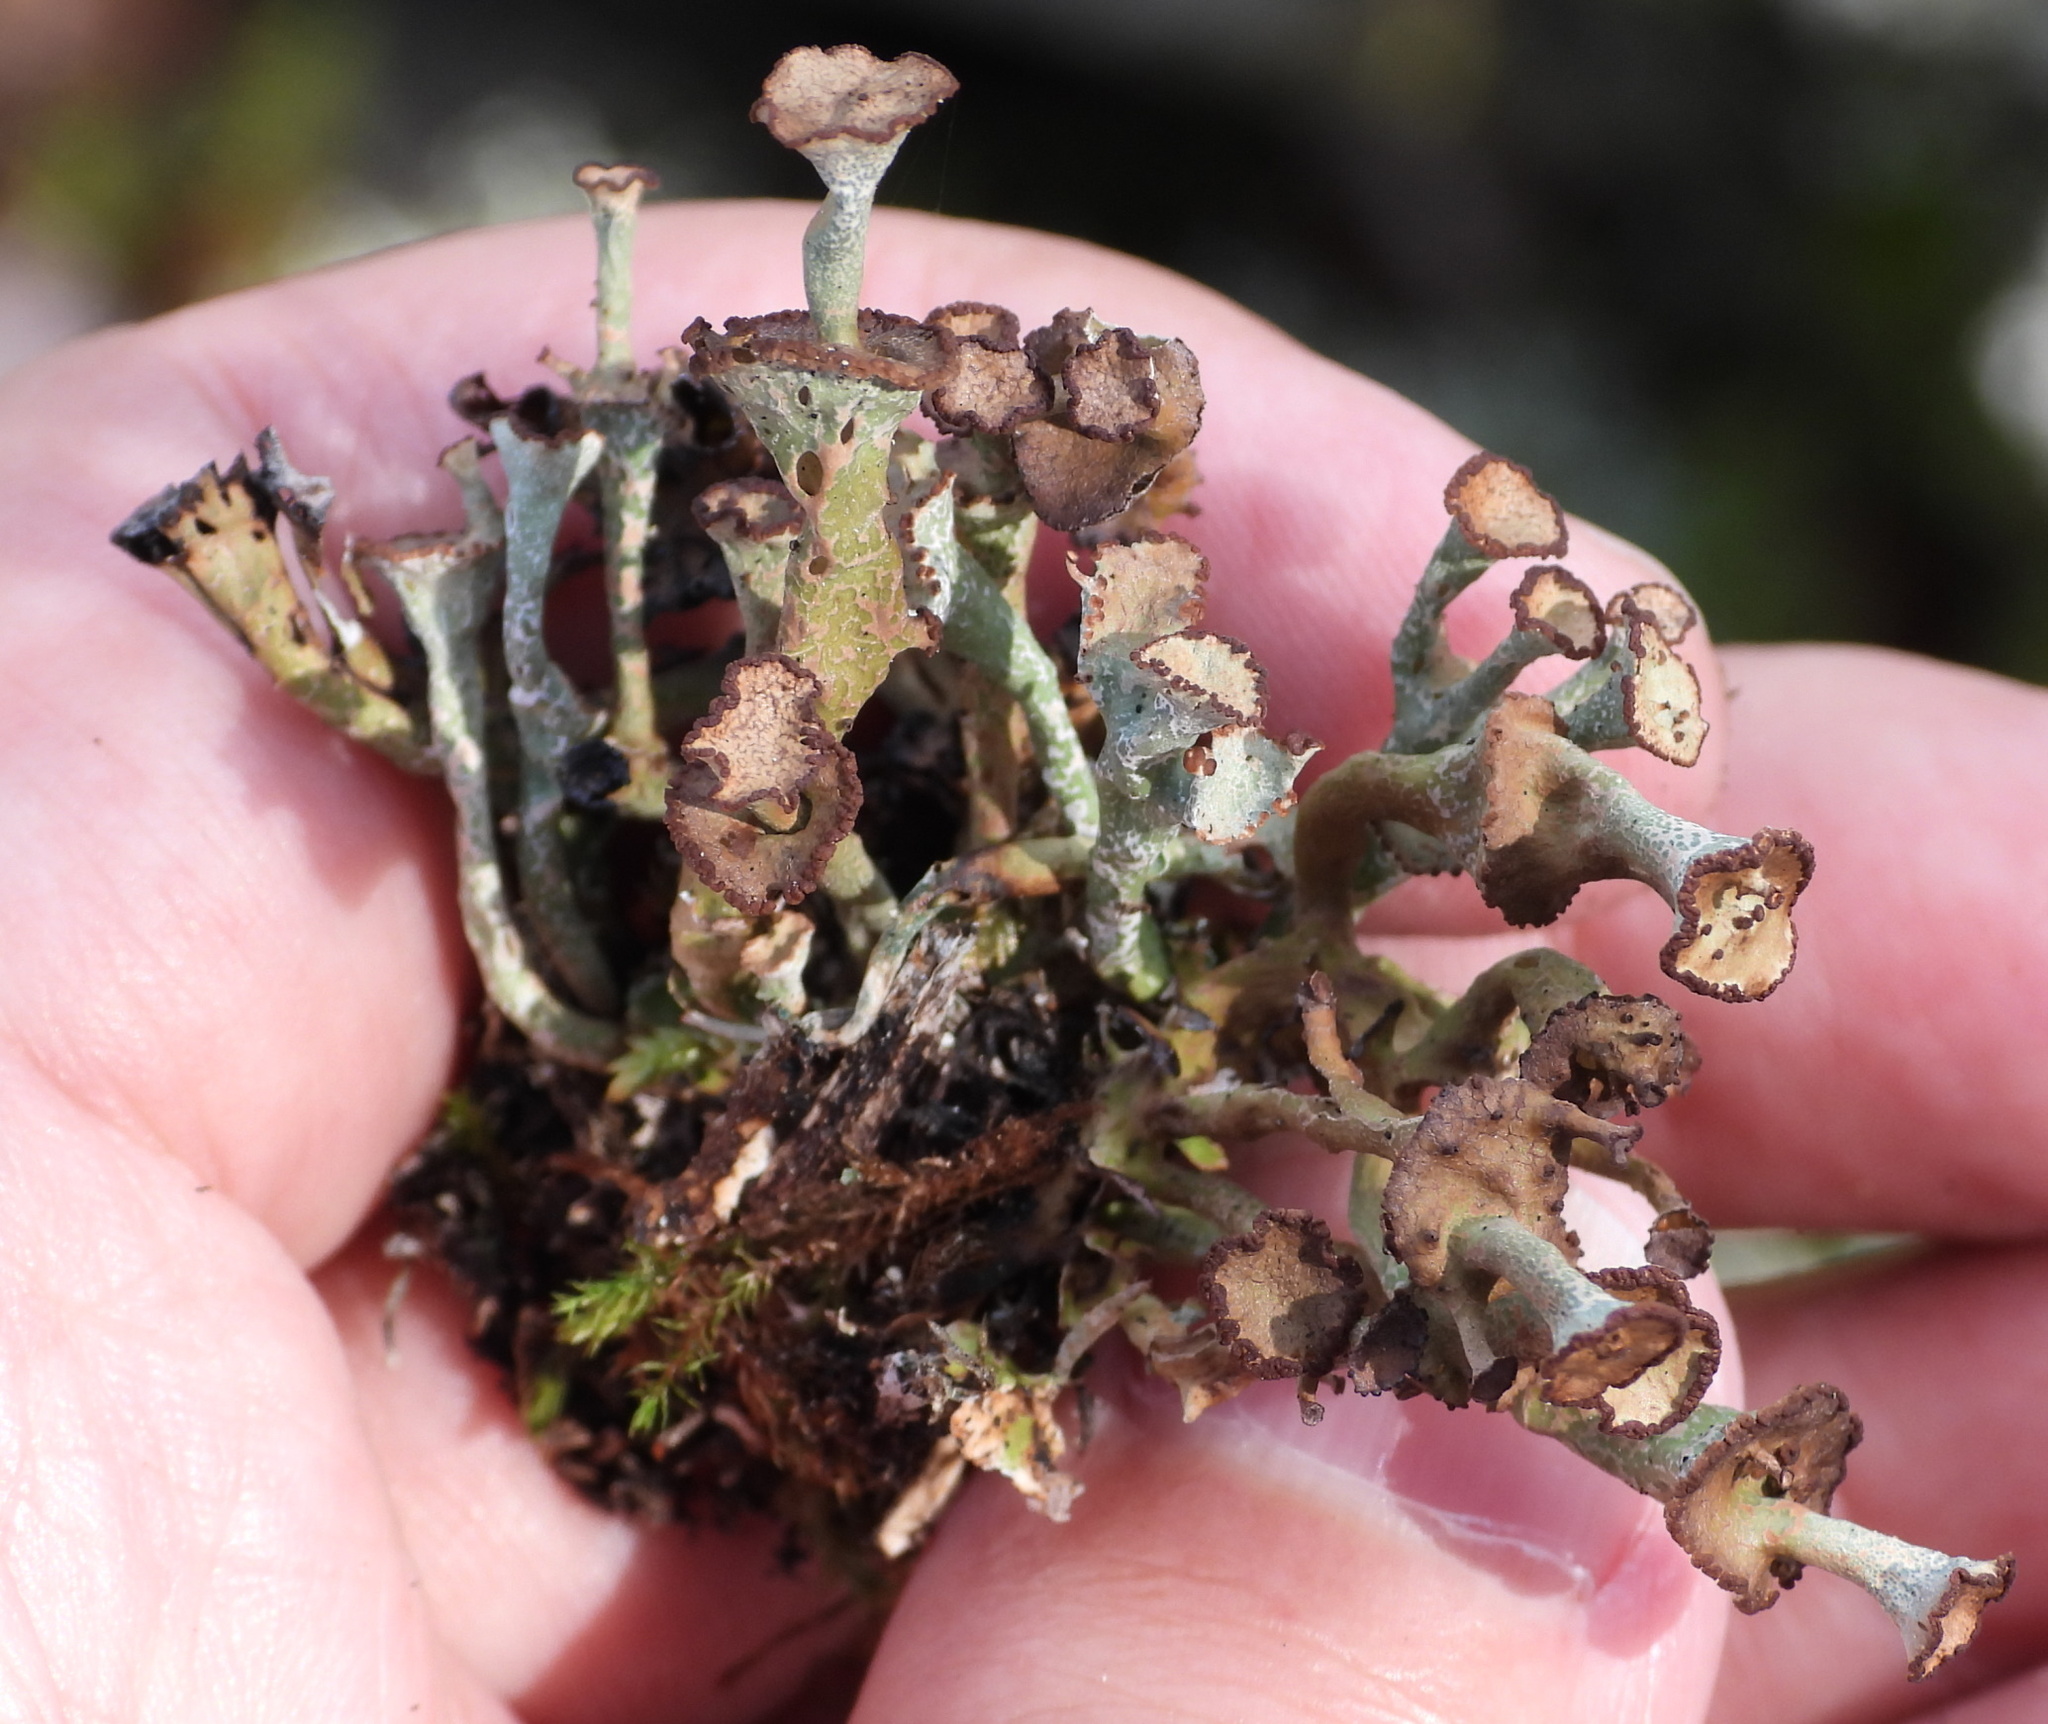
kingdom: Fungi
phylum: Ascomycota
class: Lecanoromycetes
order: Lecanorales
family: Cladoniaceae
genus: Cladonia
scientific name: Cladonia gracilis
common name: Smooth clad lichen
